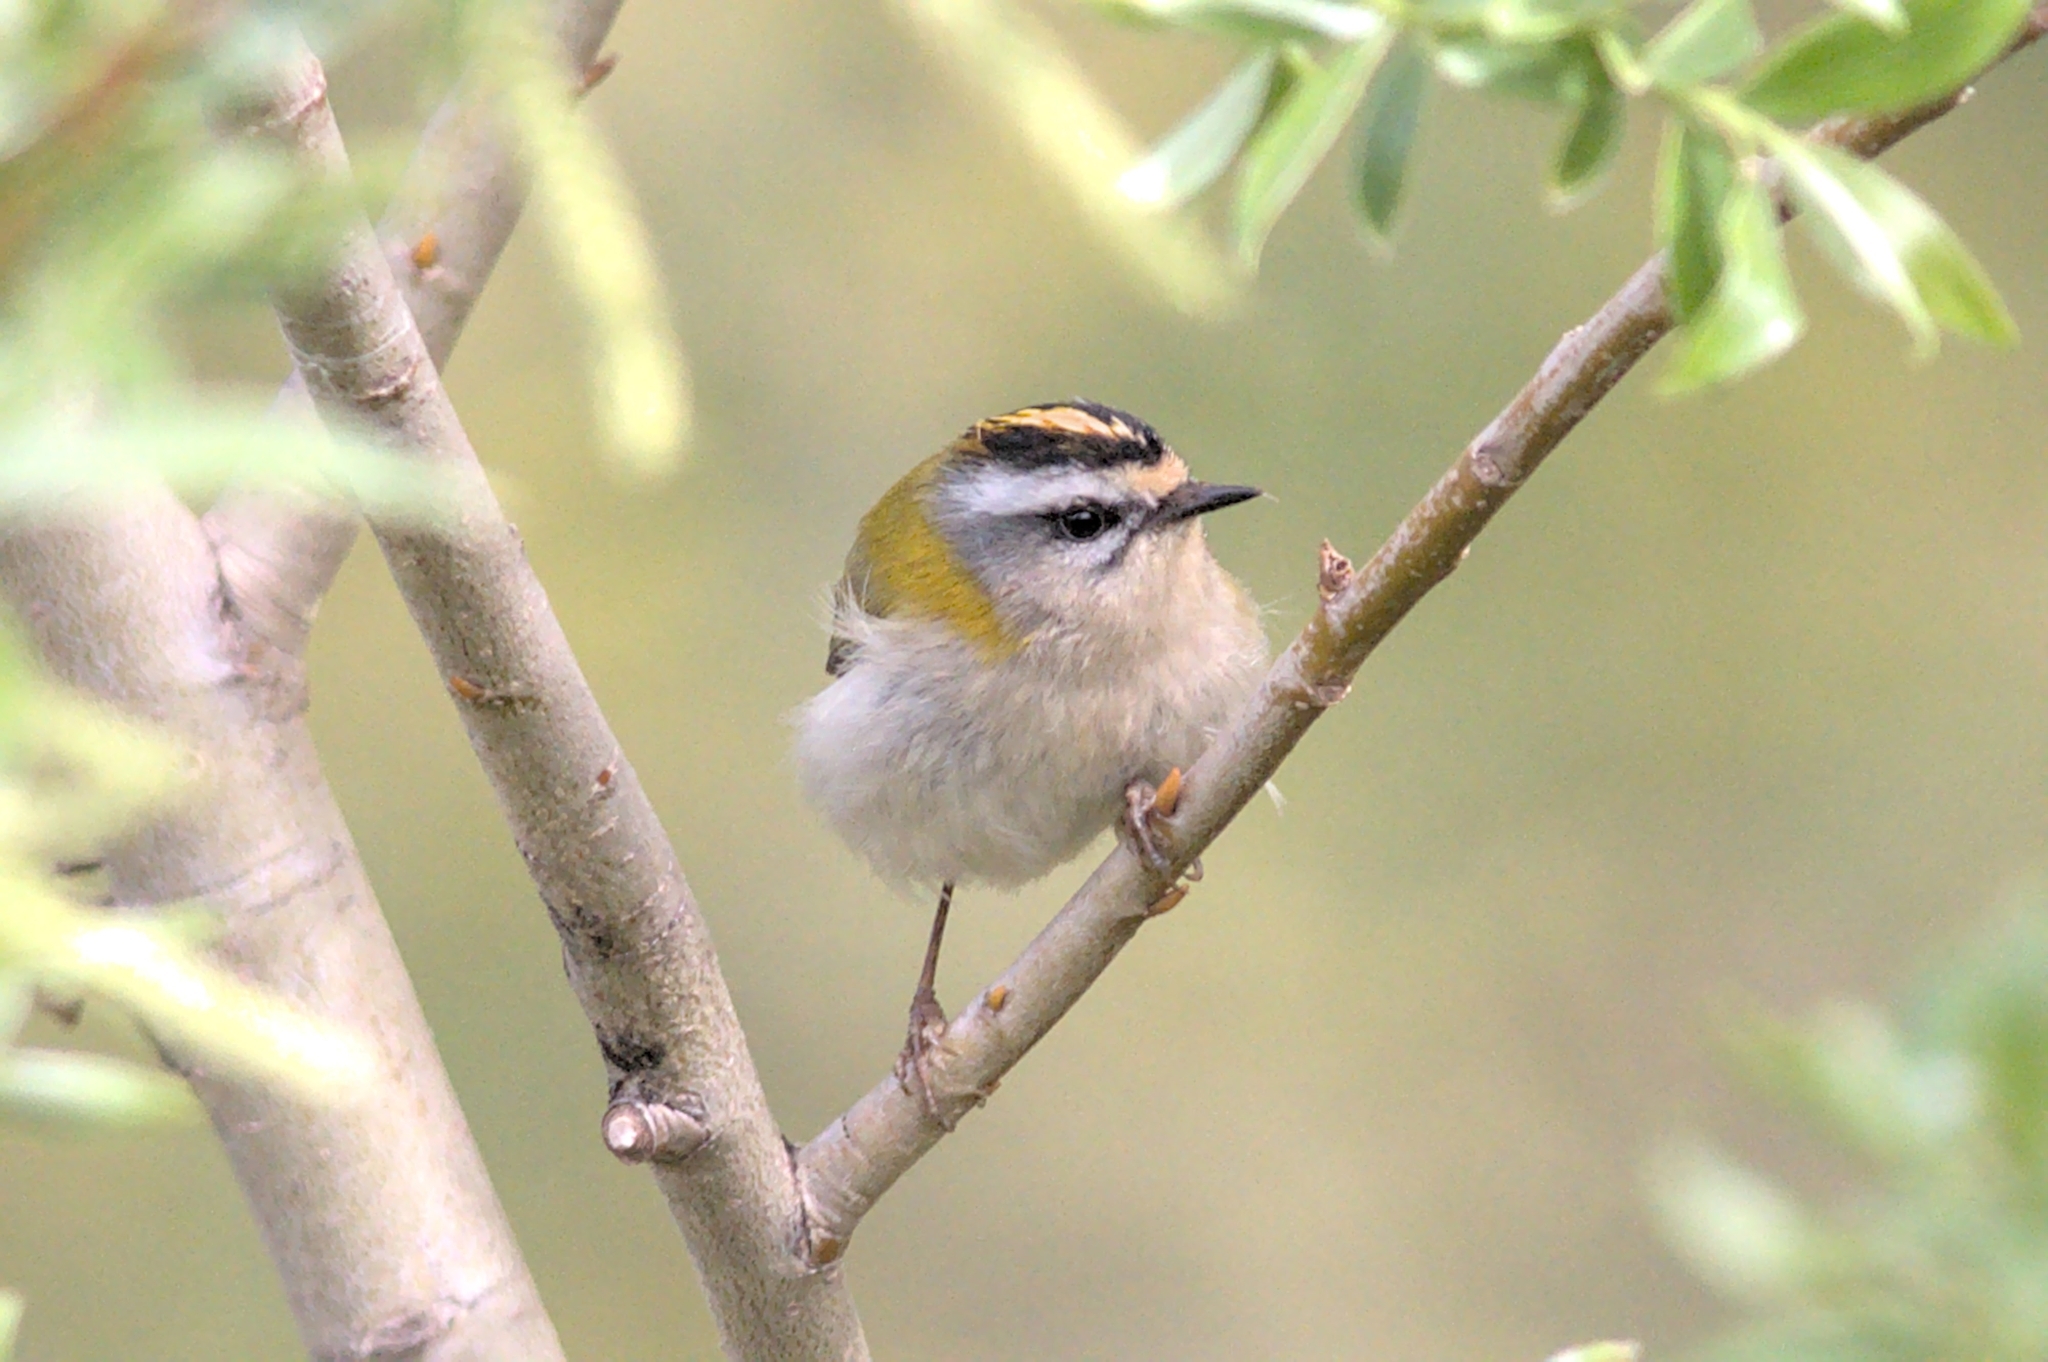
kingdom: Animalia
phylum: Chordata
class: Aves
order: Passeriformes
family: Regulidae
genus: Regulus
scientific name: Regulus ignicapilla
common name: Firecrest
